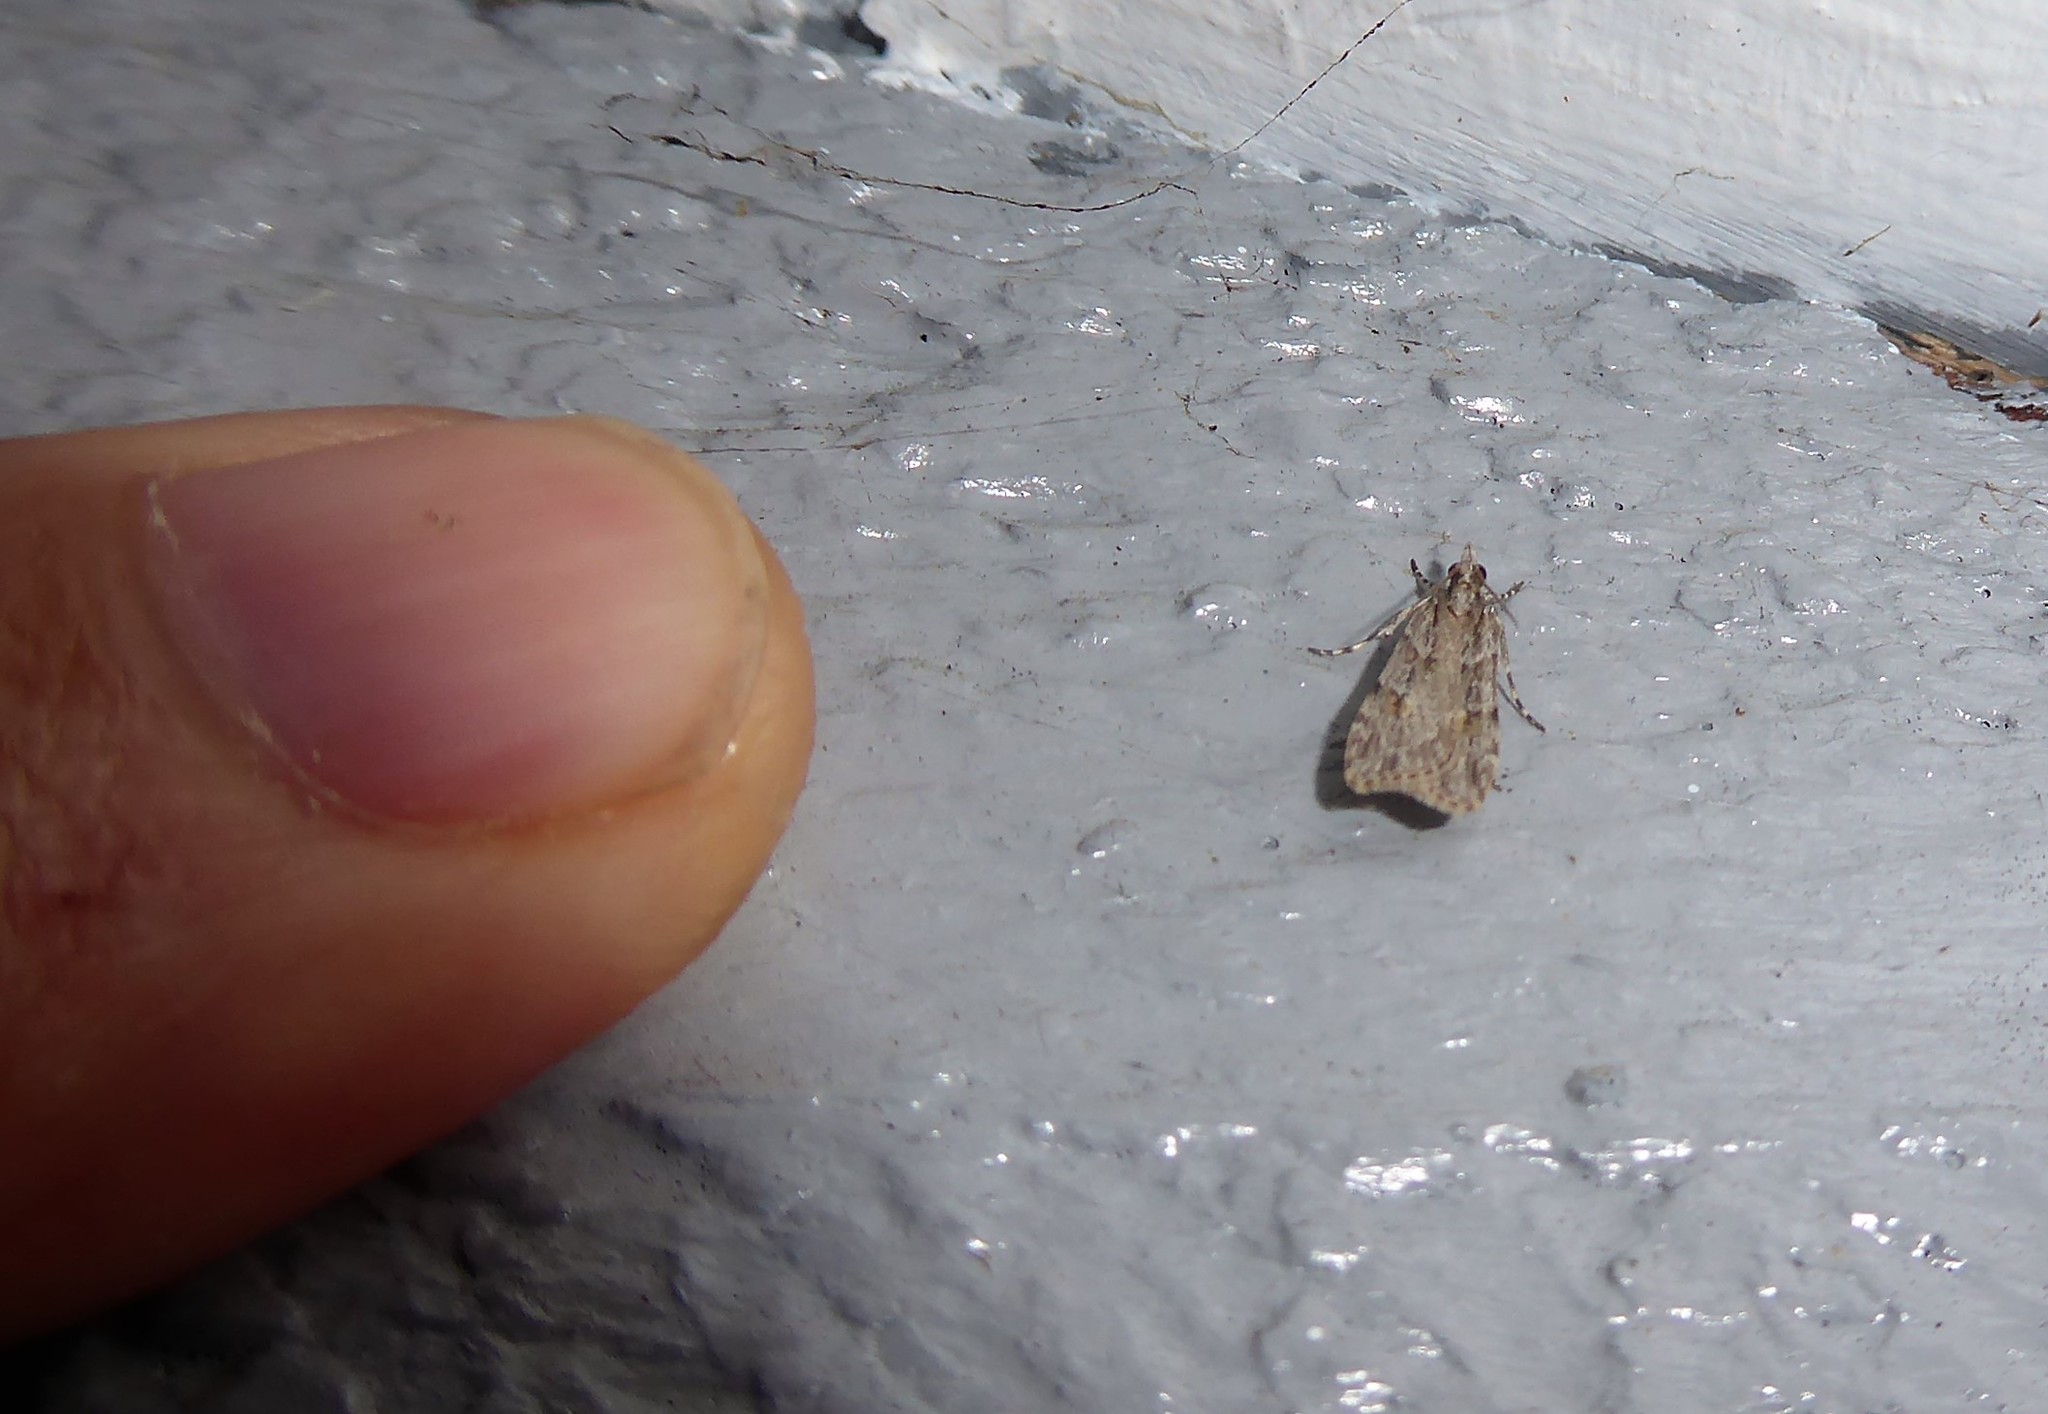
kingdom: Animalia
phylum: Arthropoda
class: Insecta
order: Lepidoptera
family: Crambidae
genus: Scoparia
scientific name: Scoparia chalicodes
